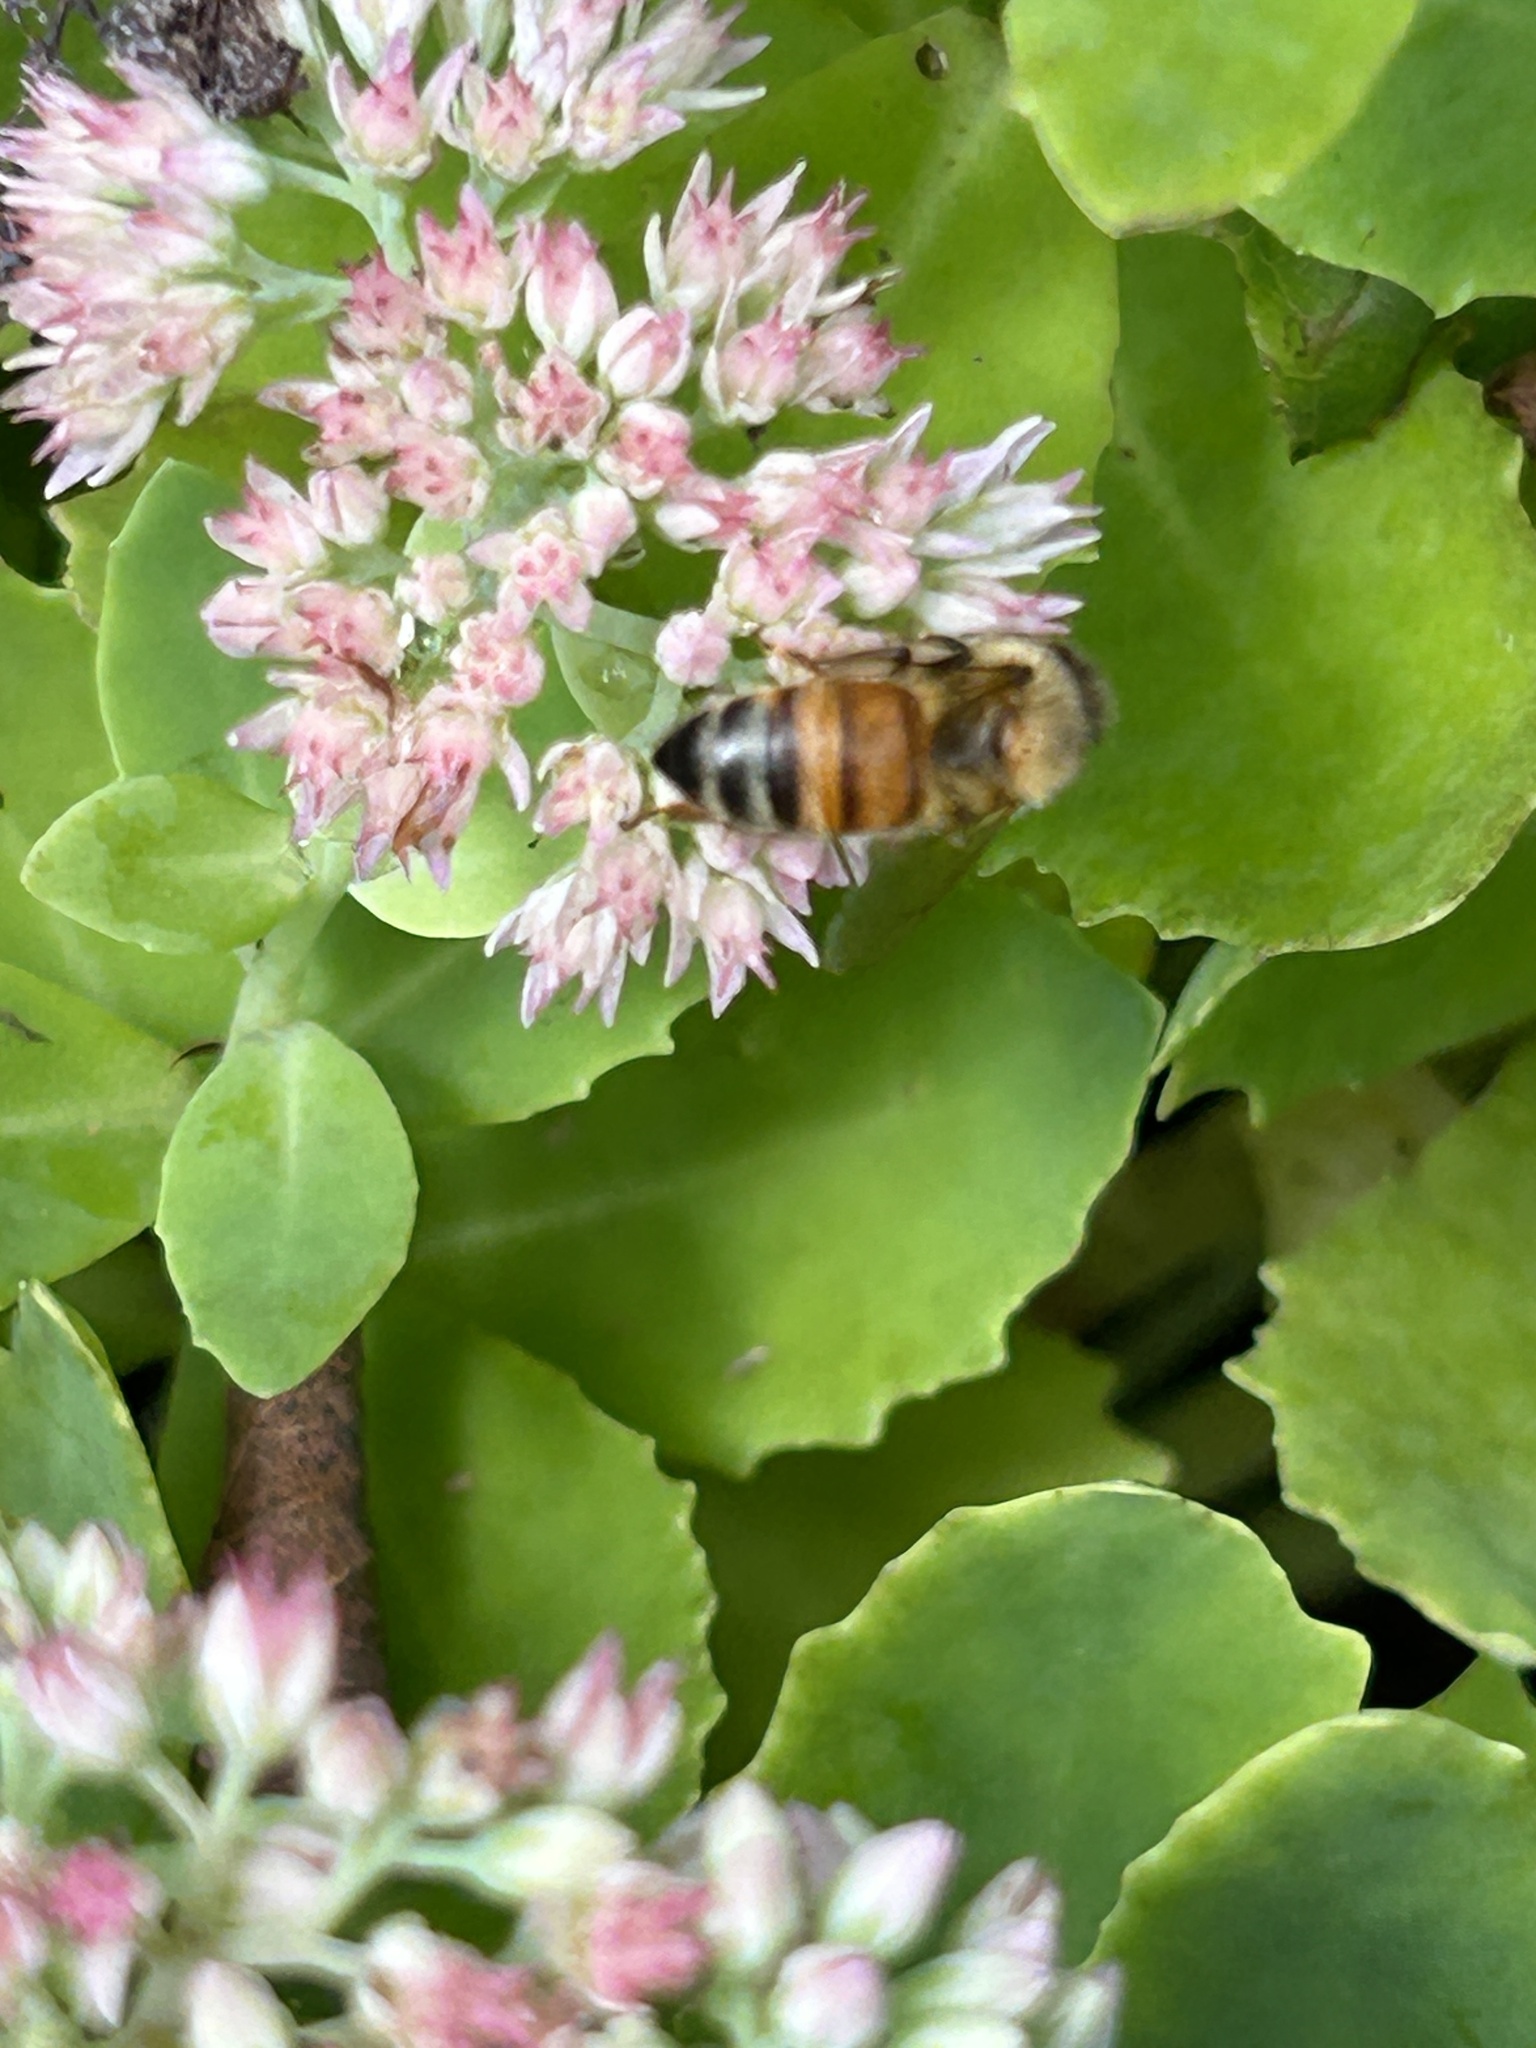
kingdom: Animalia
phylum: Arthropoda
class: Insecta
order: Hymenoptera
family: Apidae
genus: Apis
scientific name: Apis mellifera
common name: Honey bee
